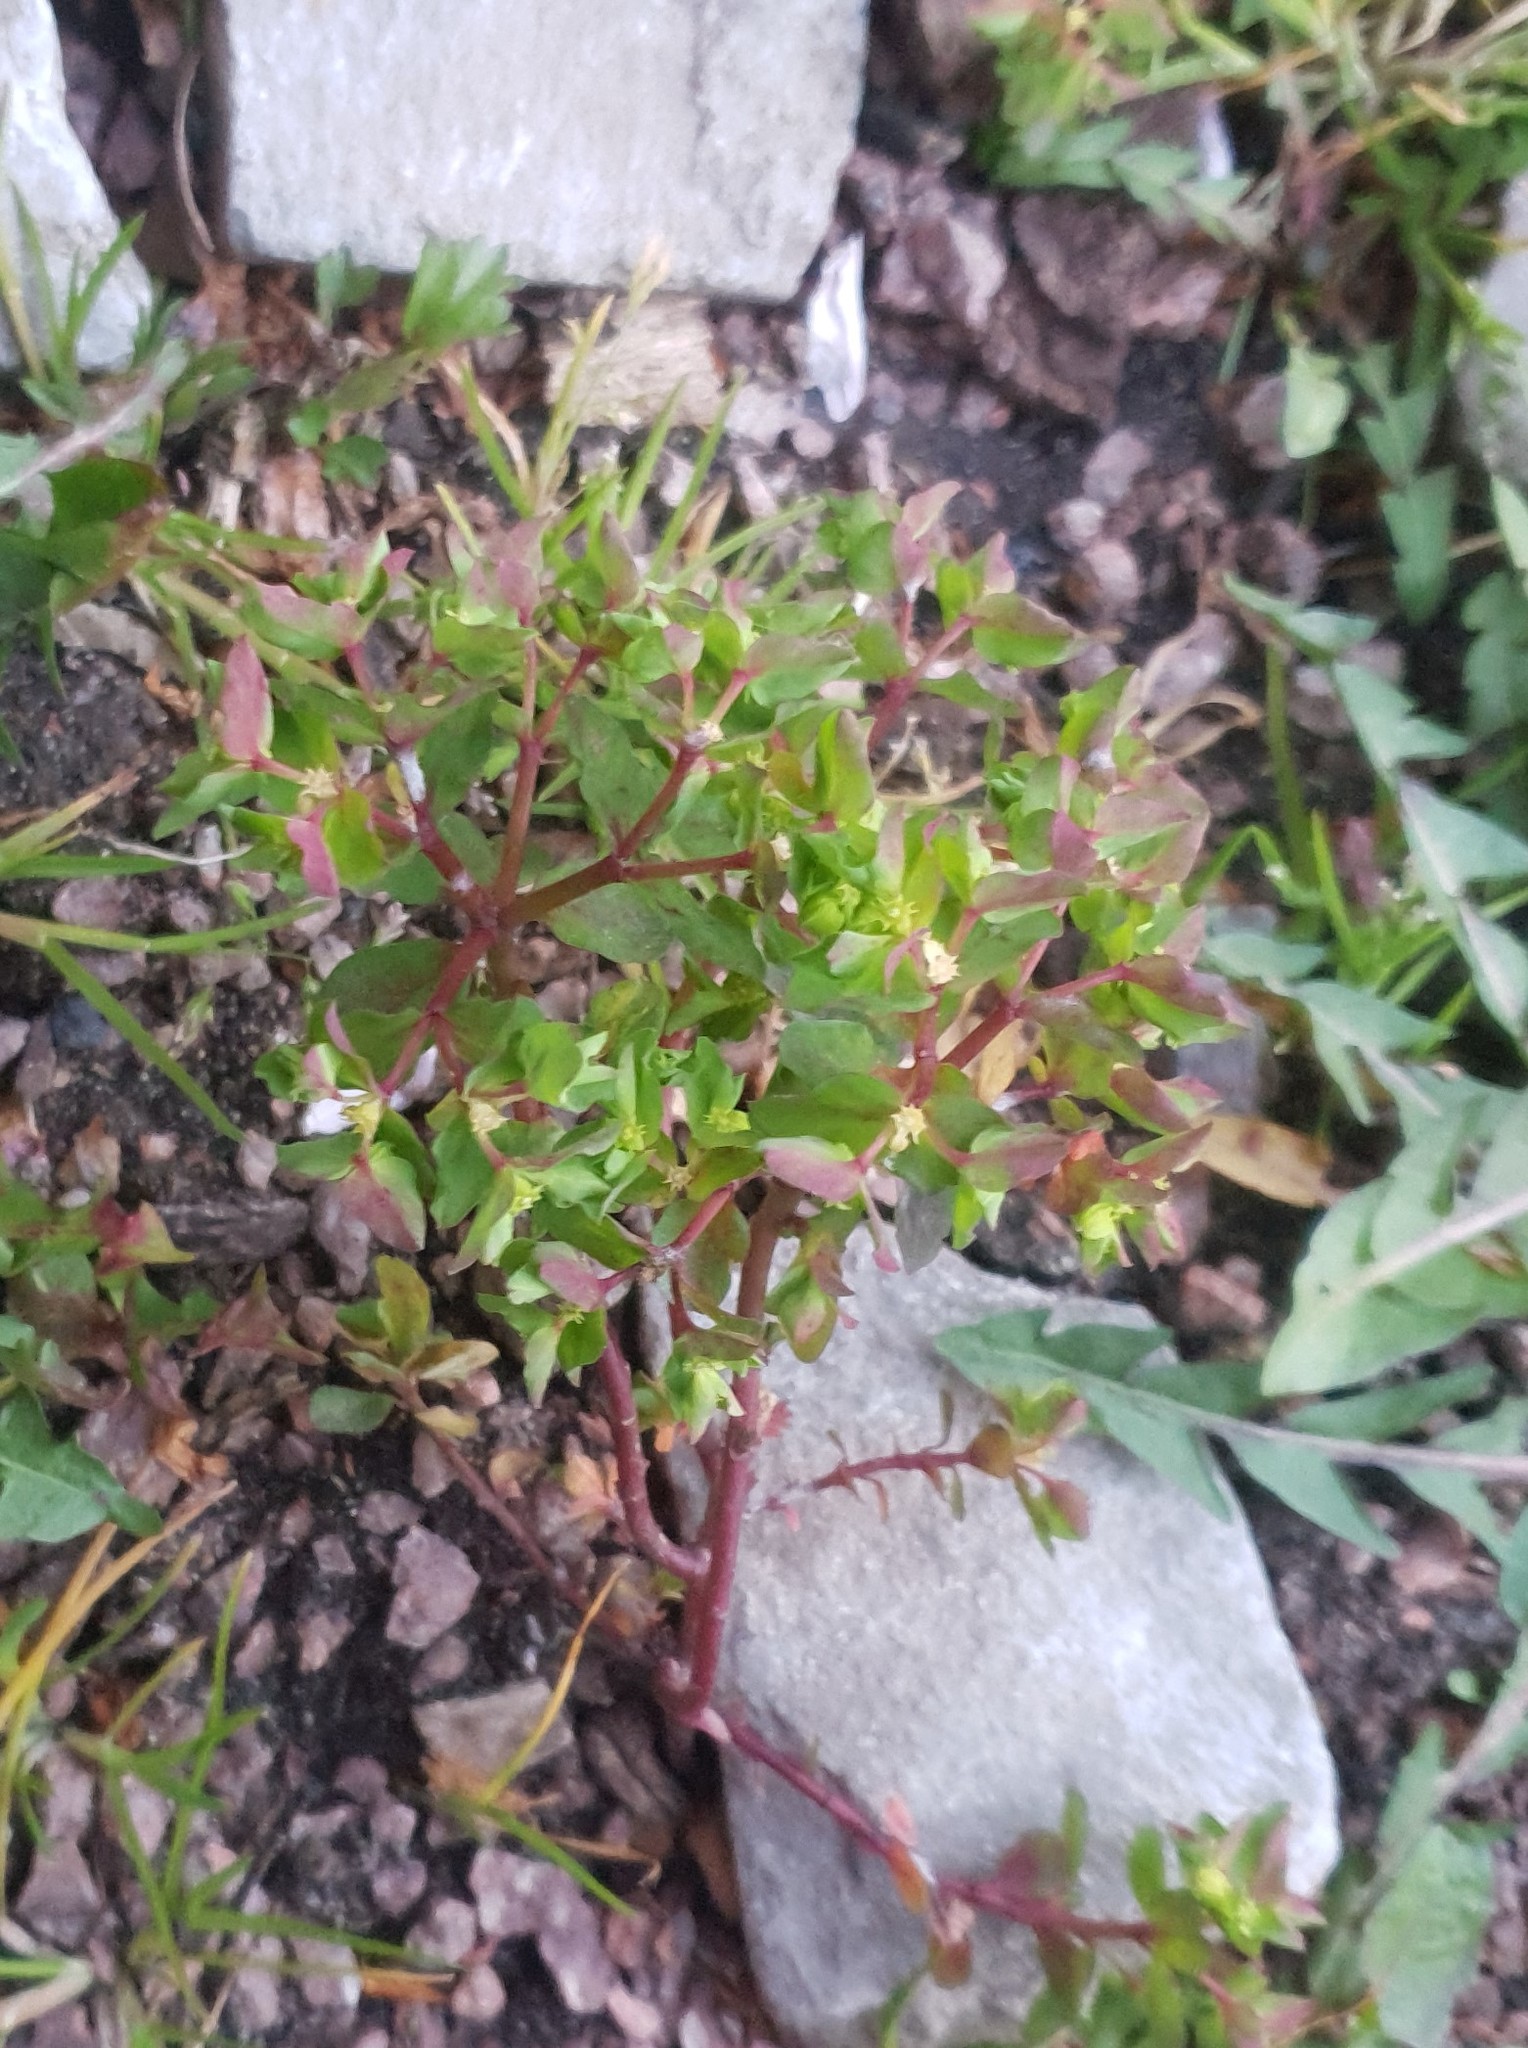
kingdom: Plantae
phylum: Tracheophyta
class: Magnoliopsida
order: Malpighiales
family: Euphorbiaceae
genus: Euphorbia
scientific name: Euphorbia peplus
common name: Petty spurge
